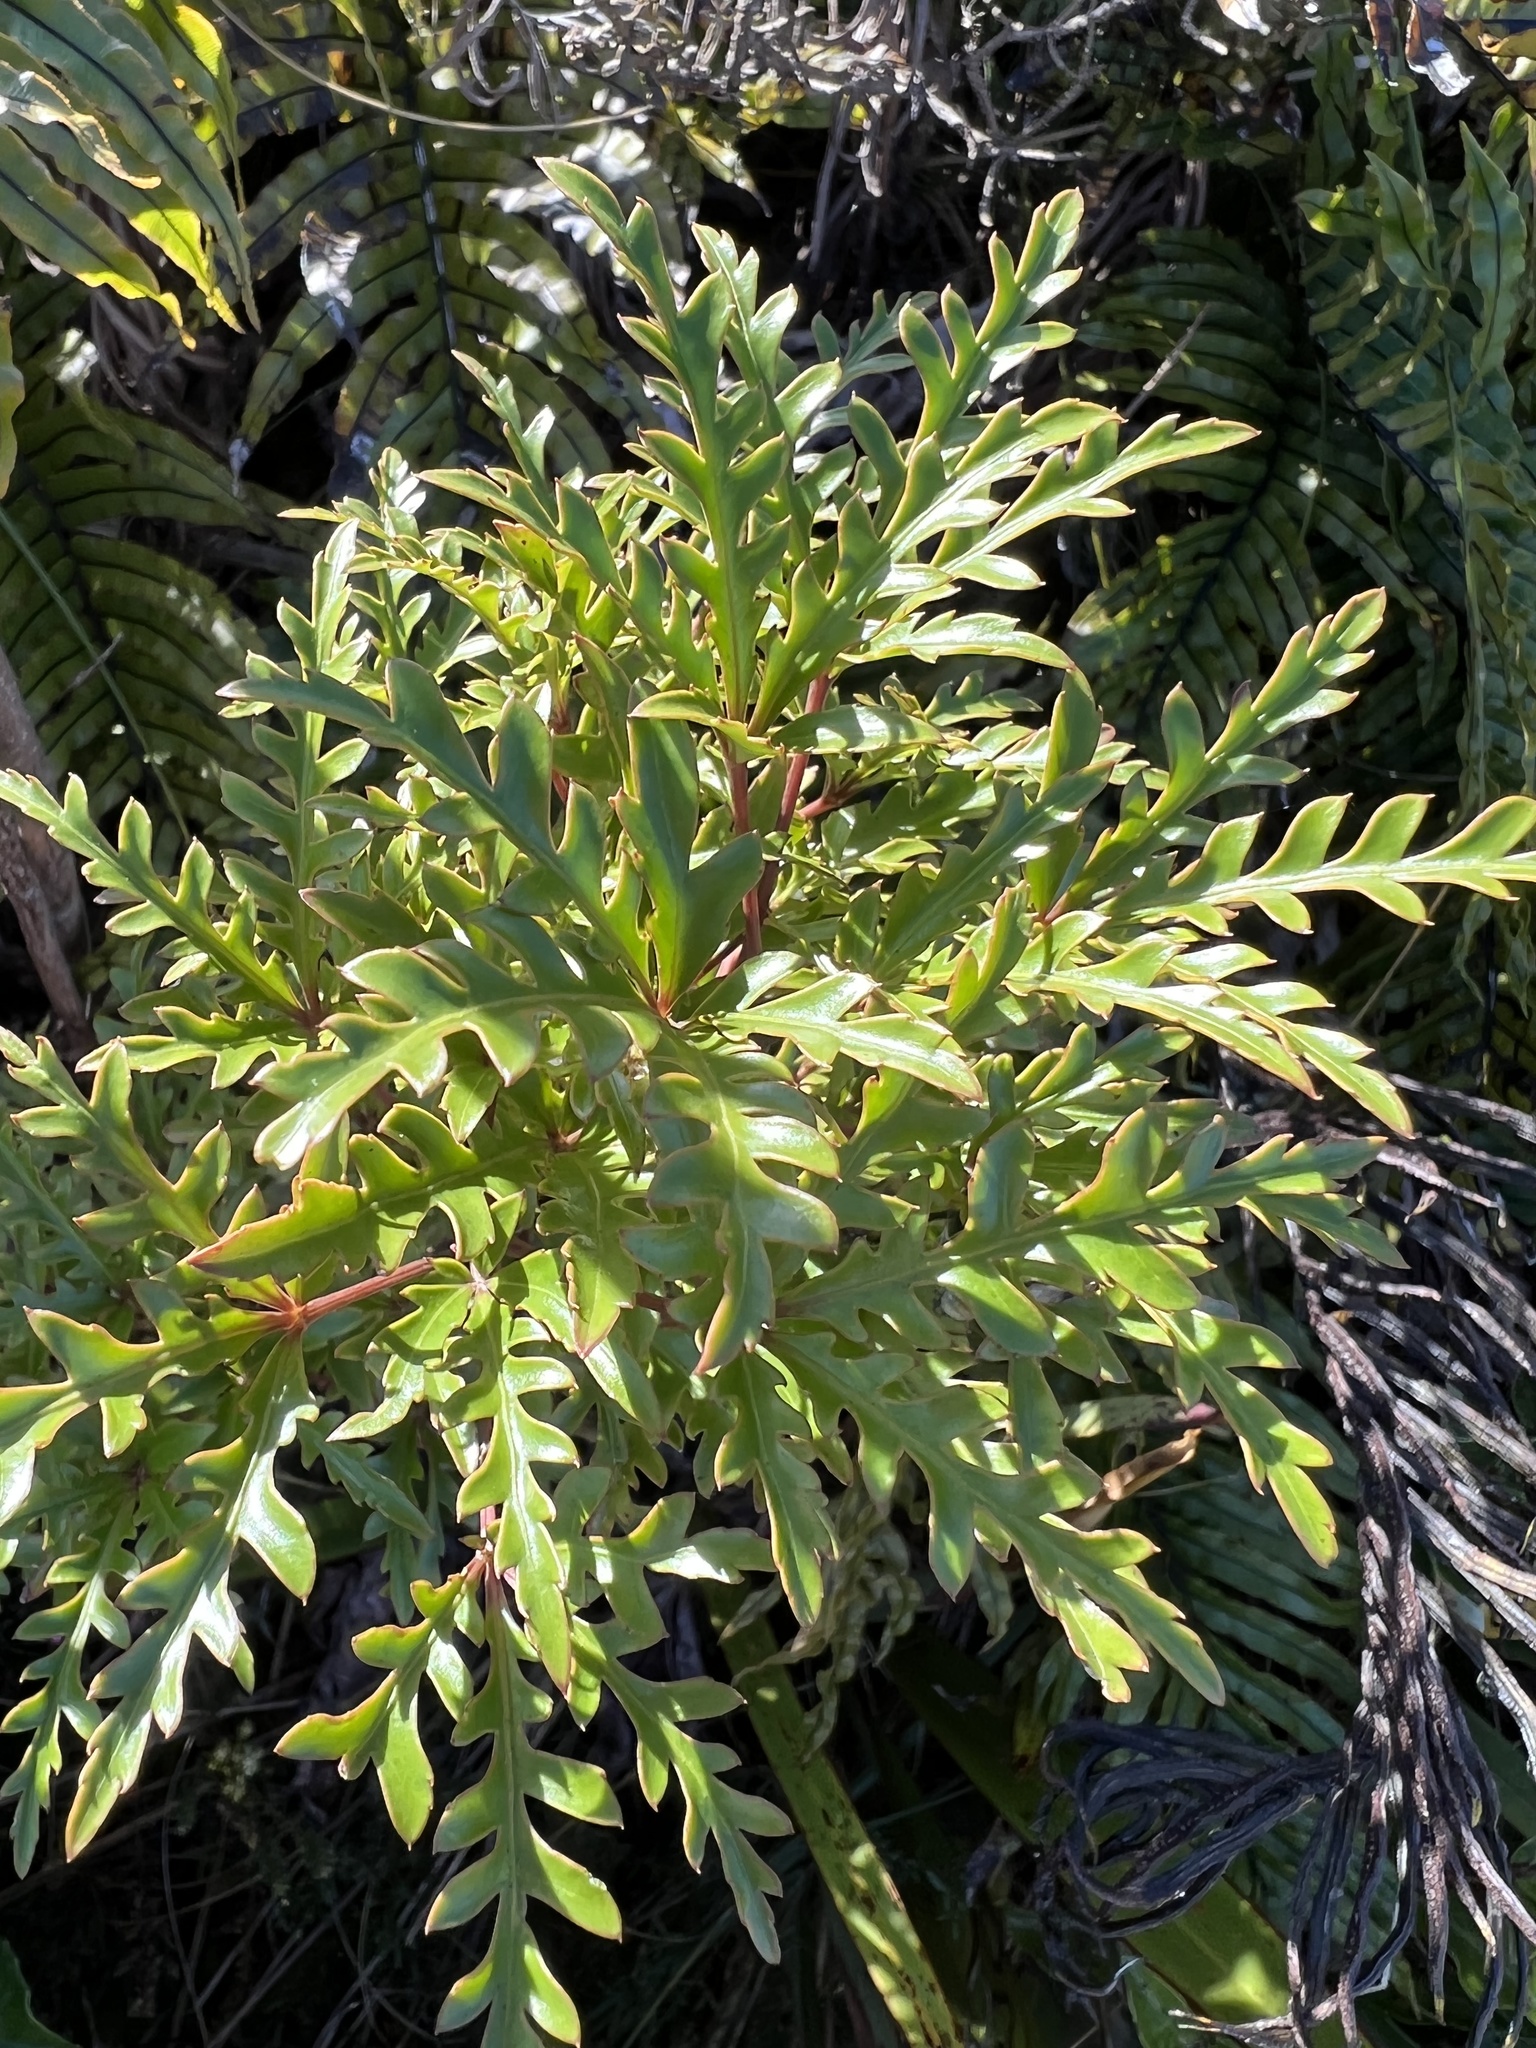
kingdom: Plantae
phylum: Tracheophyta
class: Magnoliopsida
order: Apiales
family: Araliaceae
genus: Raukaua
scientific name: Raukaua simplex
